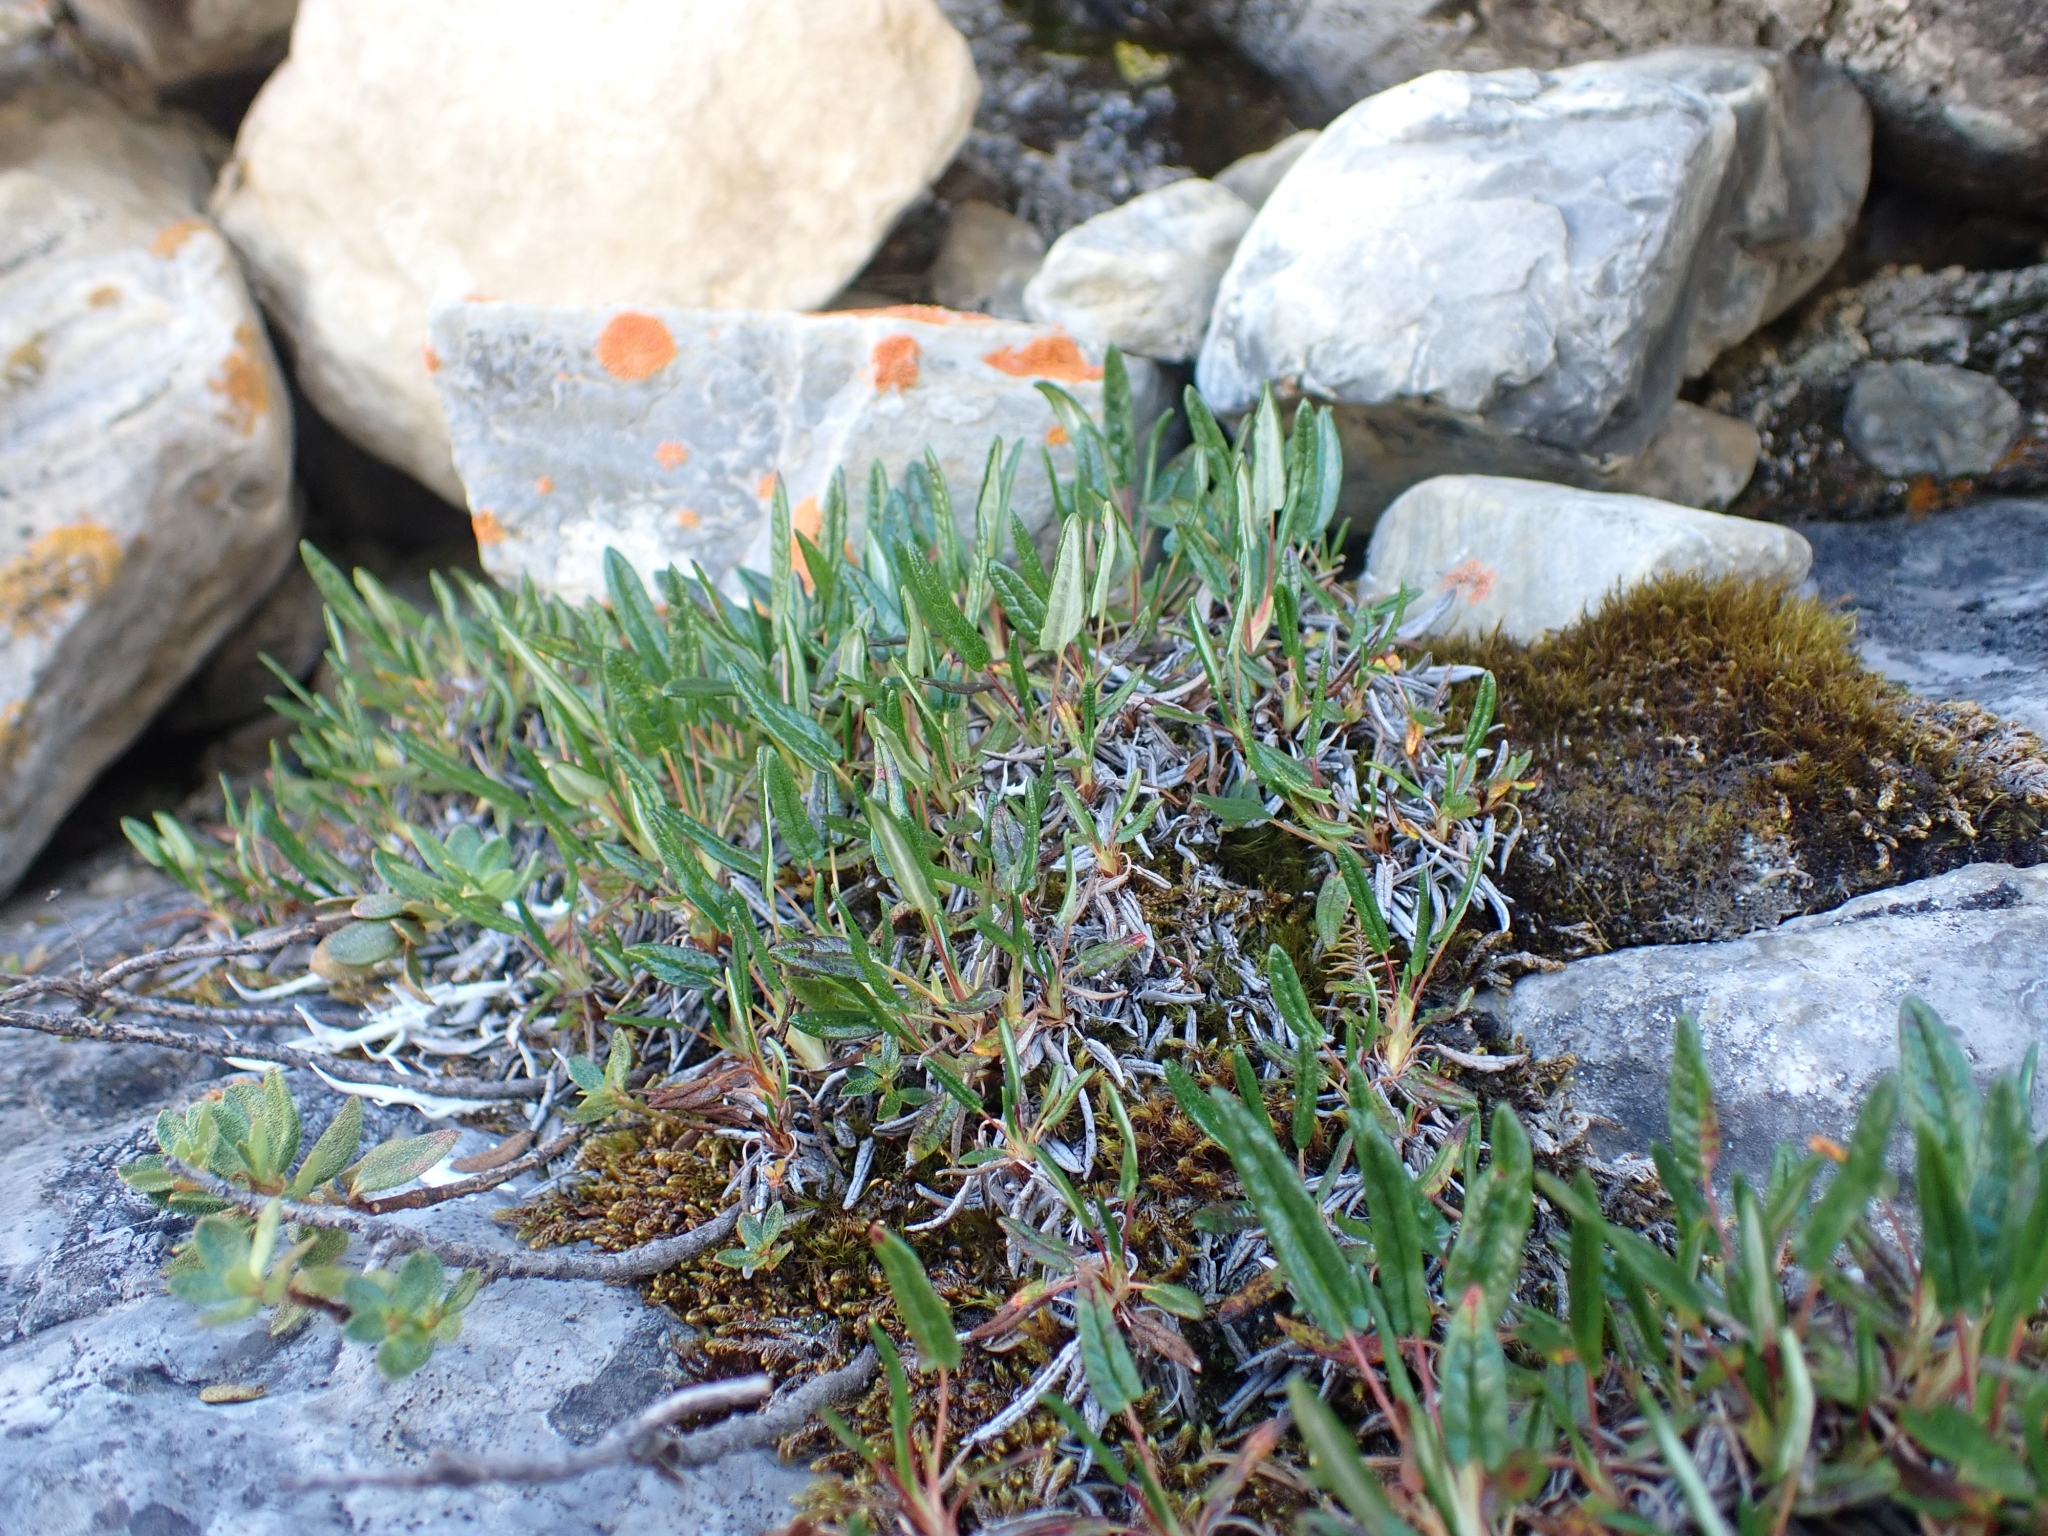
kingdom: Plantae
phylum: Tracheophyta
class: Magnoliopsida
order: Rosales
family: Rosaceae
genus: Dryas
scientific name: Dryas integrifolia
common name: Entire-leaved mountain avens
